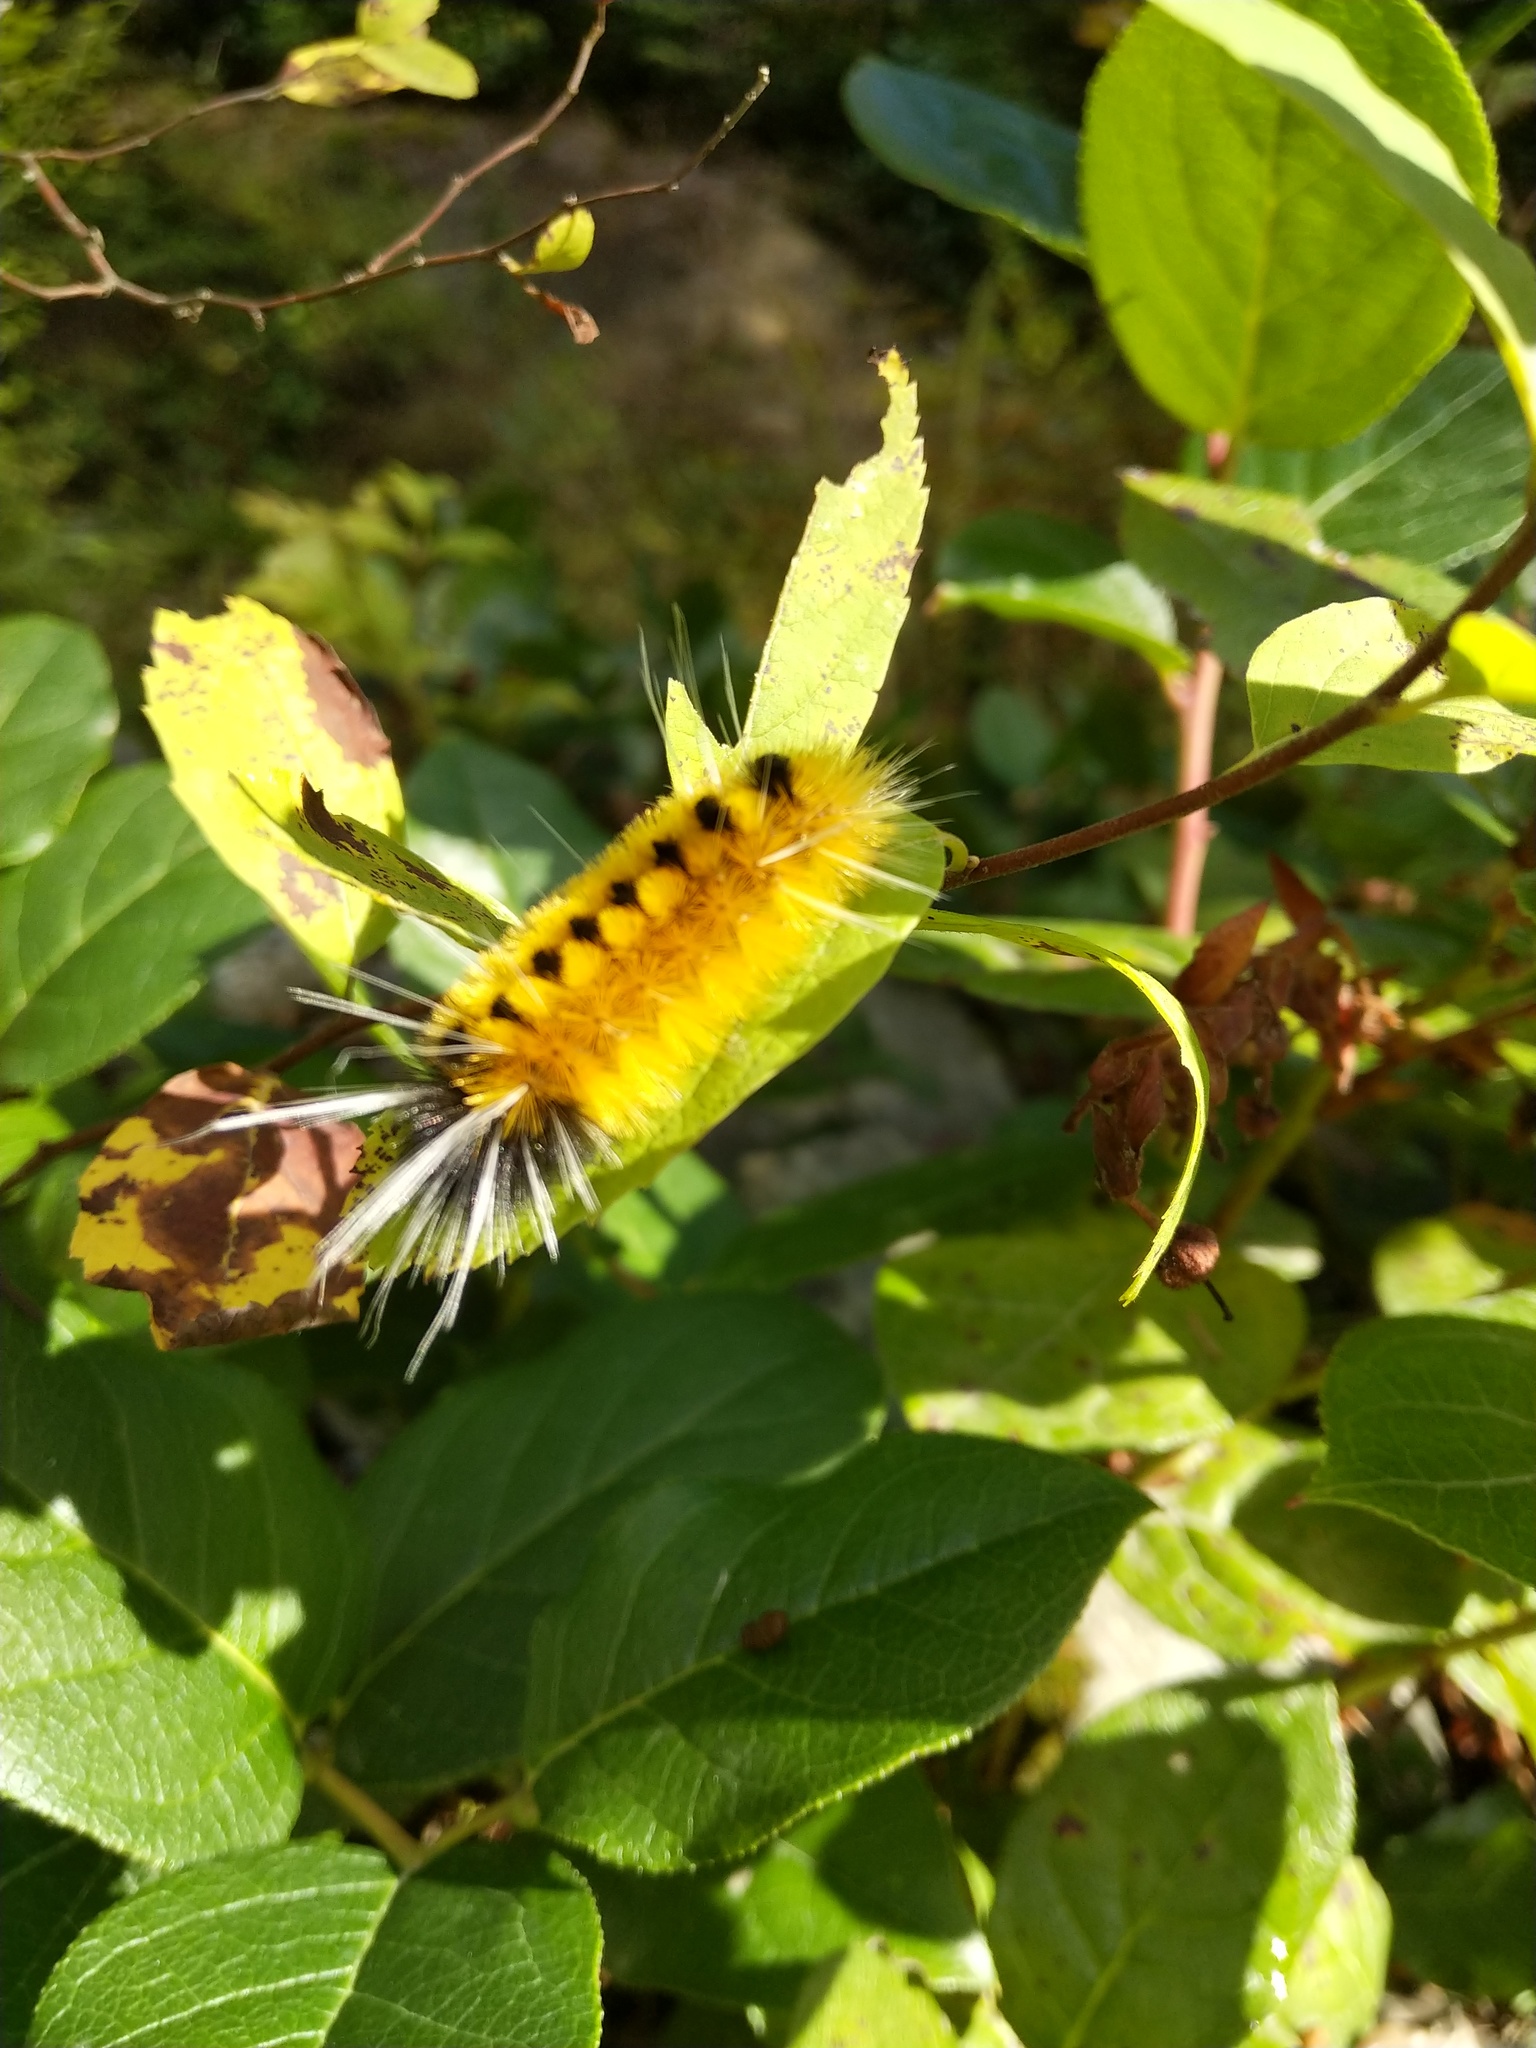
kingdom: Animalia
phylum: Arthropoda
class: Insecta
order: Lepidoptera
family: Erebidae
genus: Lophocampa
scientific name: Lophocampa maculata
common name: Spotted tussock moth
